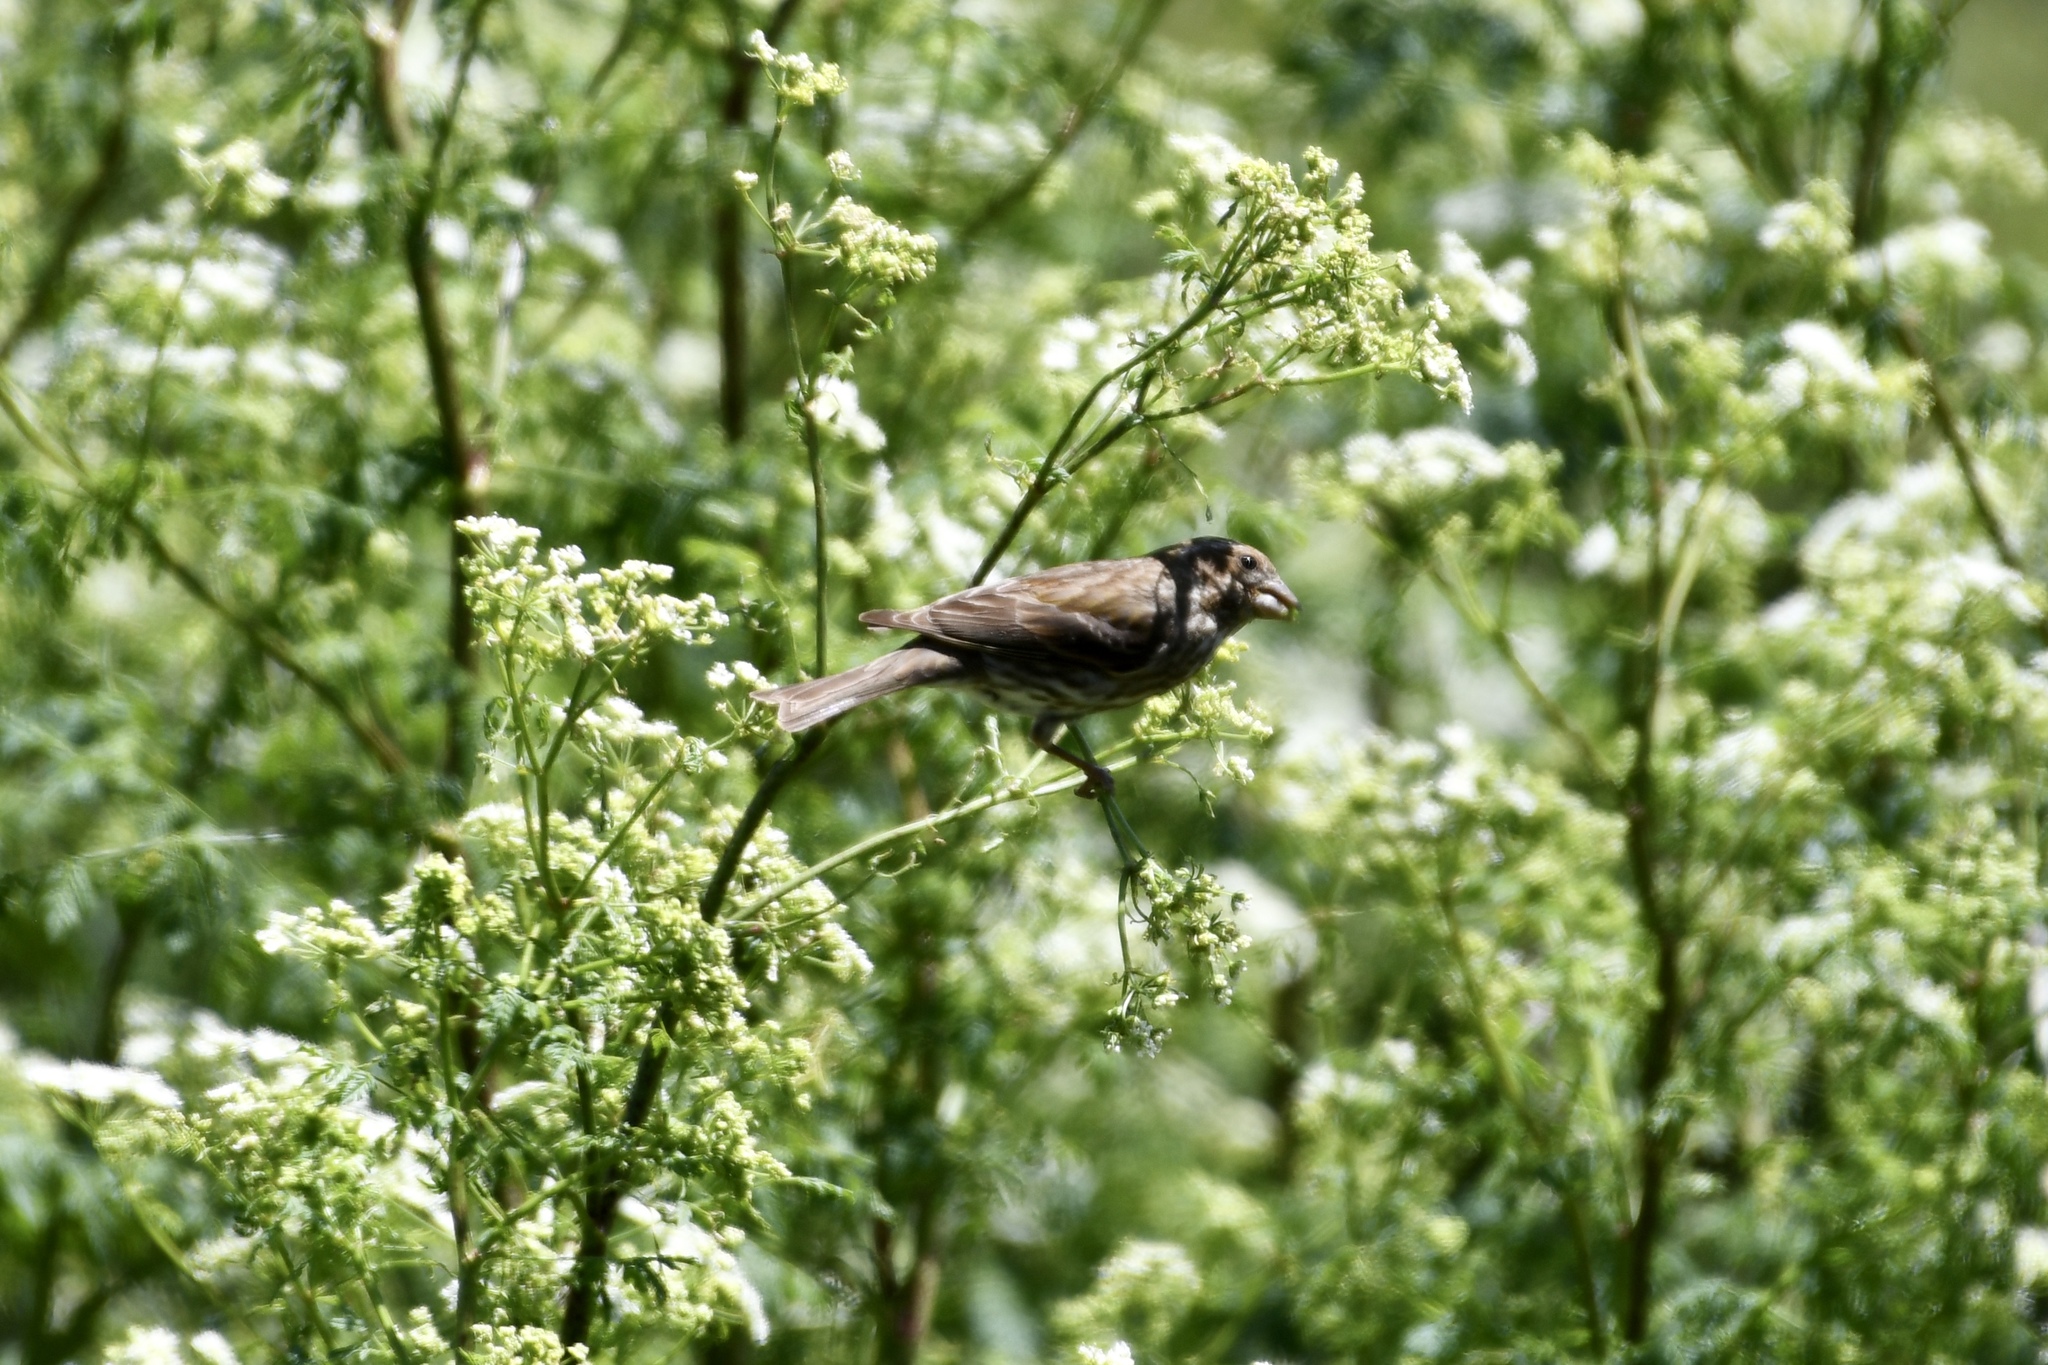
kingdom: Animalia
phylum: Chordata
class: Aves
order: Passeriformes
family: Fringillidae
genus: Haemorhous
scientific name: Haemorhous purpureus
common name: Purple finch
